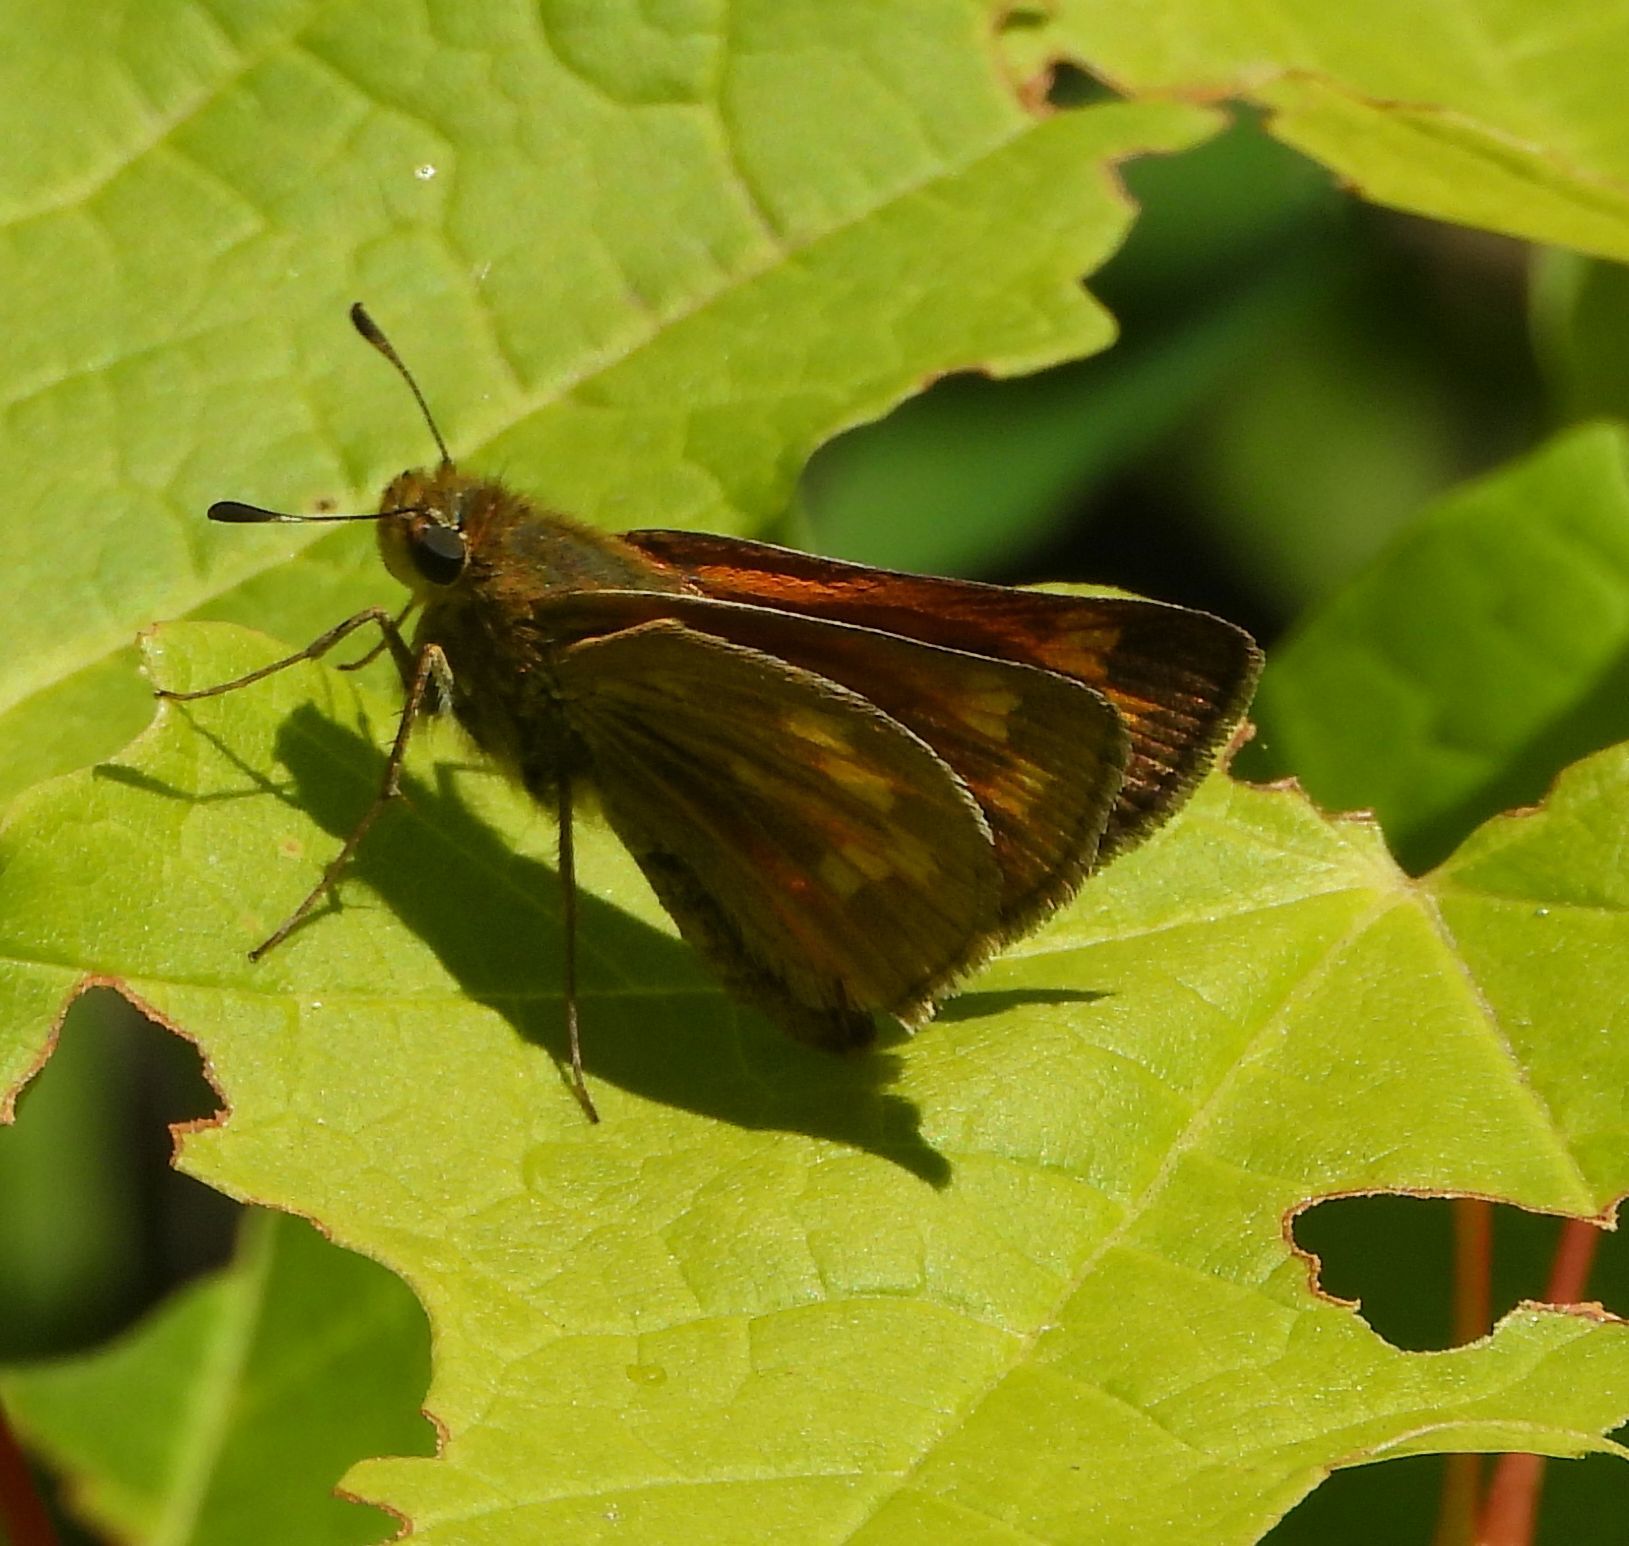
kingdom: Animalia
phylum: Arthropoda
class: Insecta
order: Lepidoptera
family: Hesperiidae
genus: Hesperia
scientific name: Hesperia sassacus
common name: Indian skipper
